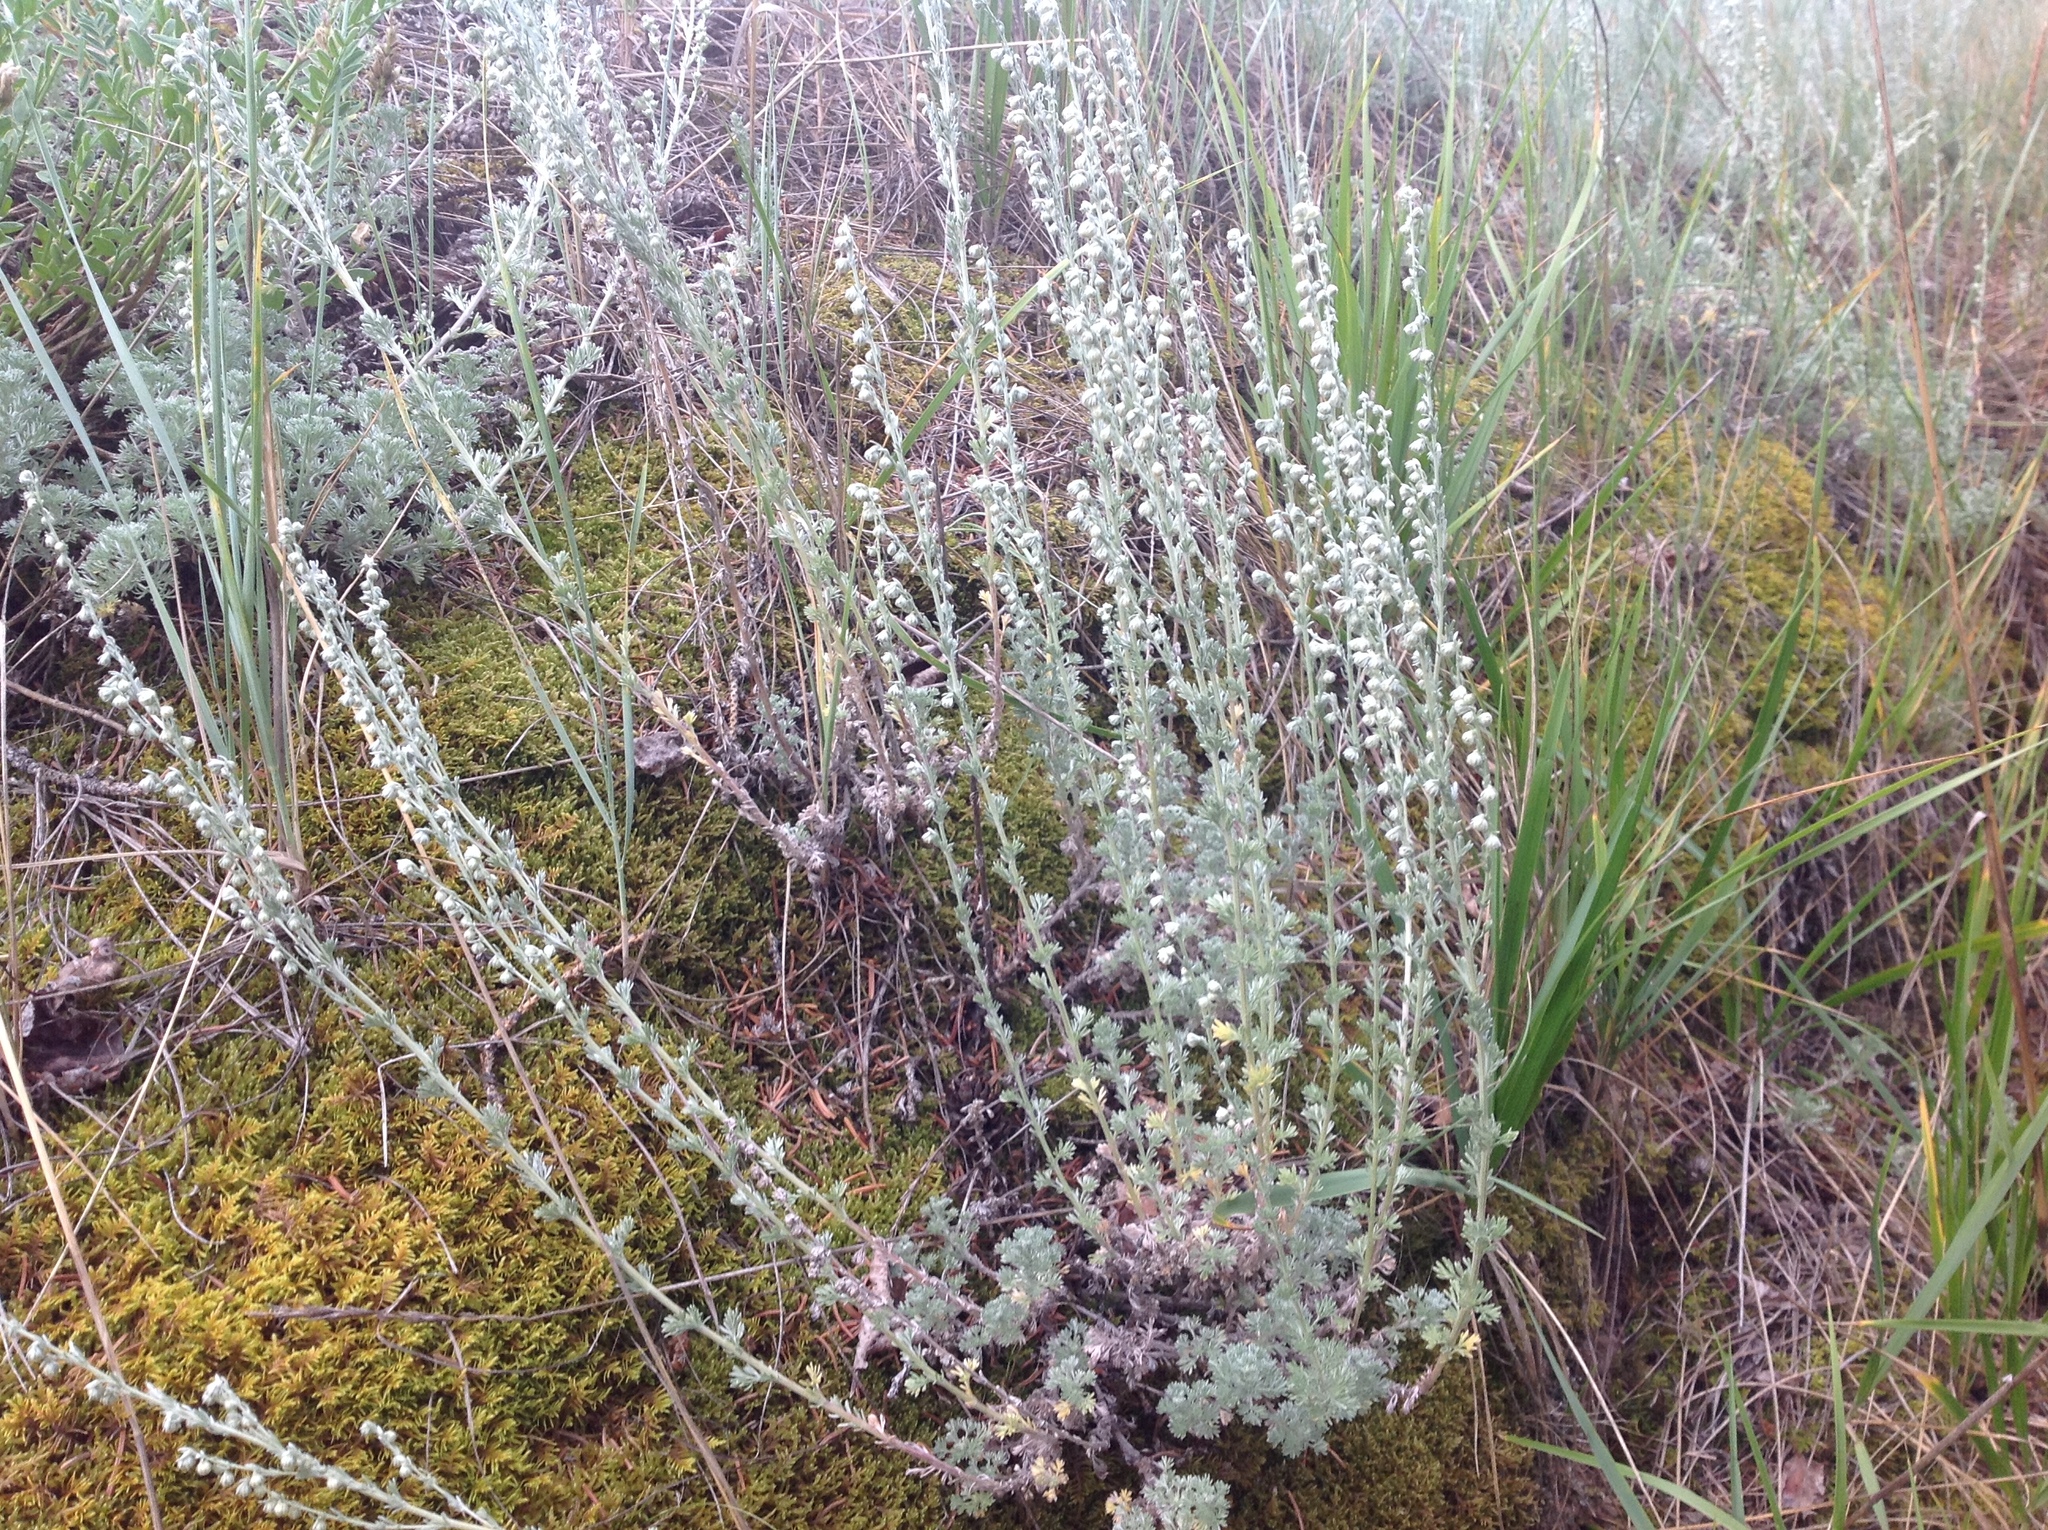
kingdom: Plantae
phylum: Tracheophyta
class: Magnoliopsida
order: Asterales
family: Asteraceae
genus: Artemisia
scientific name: Artemisia frigida
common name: Prairie sagewort
